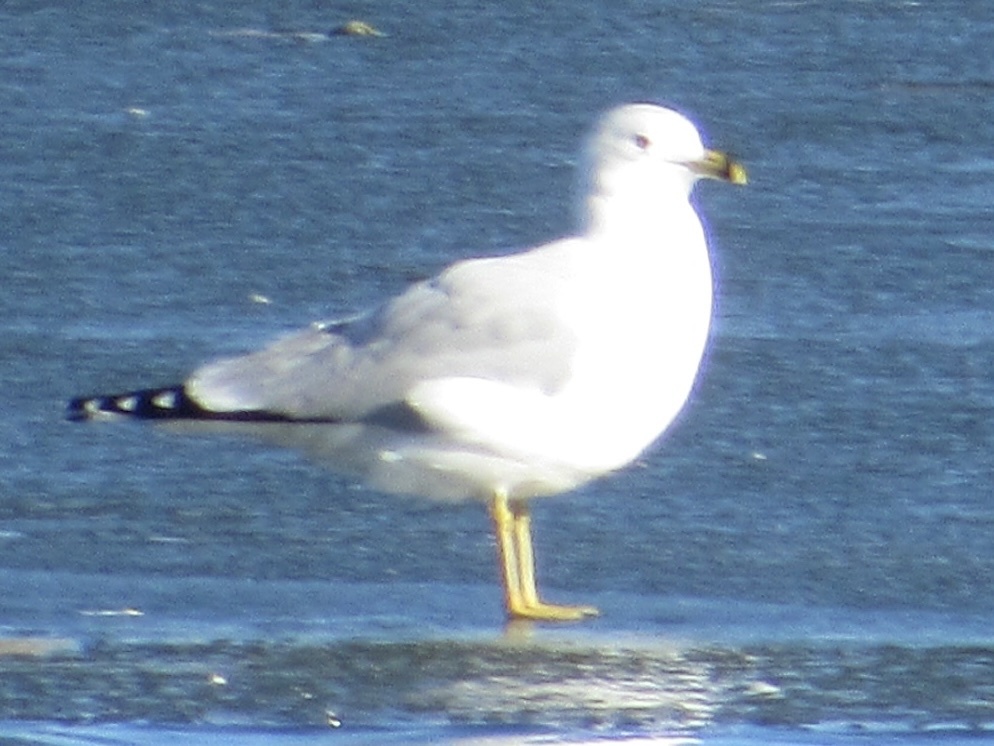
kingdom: Animalia
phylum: Chordata
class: Aves
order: Charadriiformes
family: Laridae
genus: Larus
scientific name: Larus delawarensis
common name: Ring-billed gull
